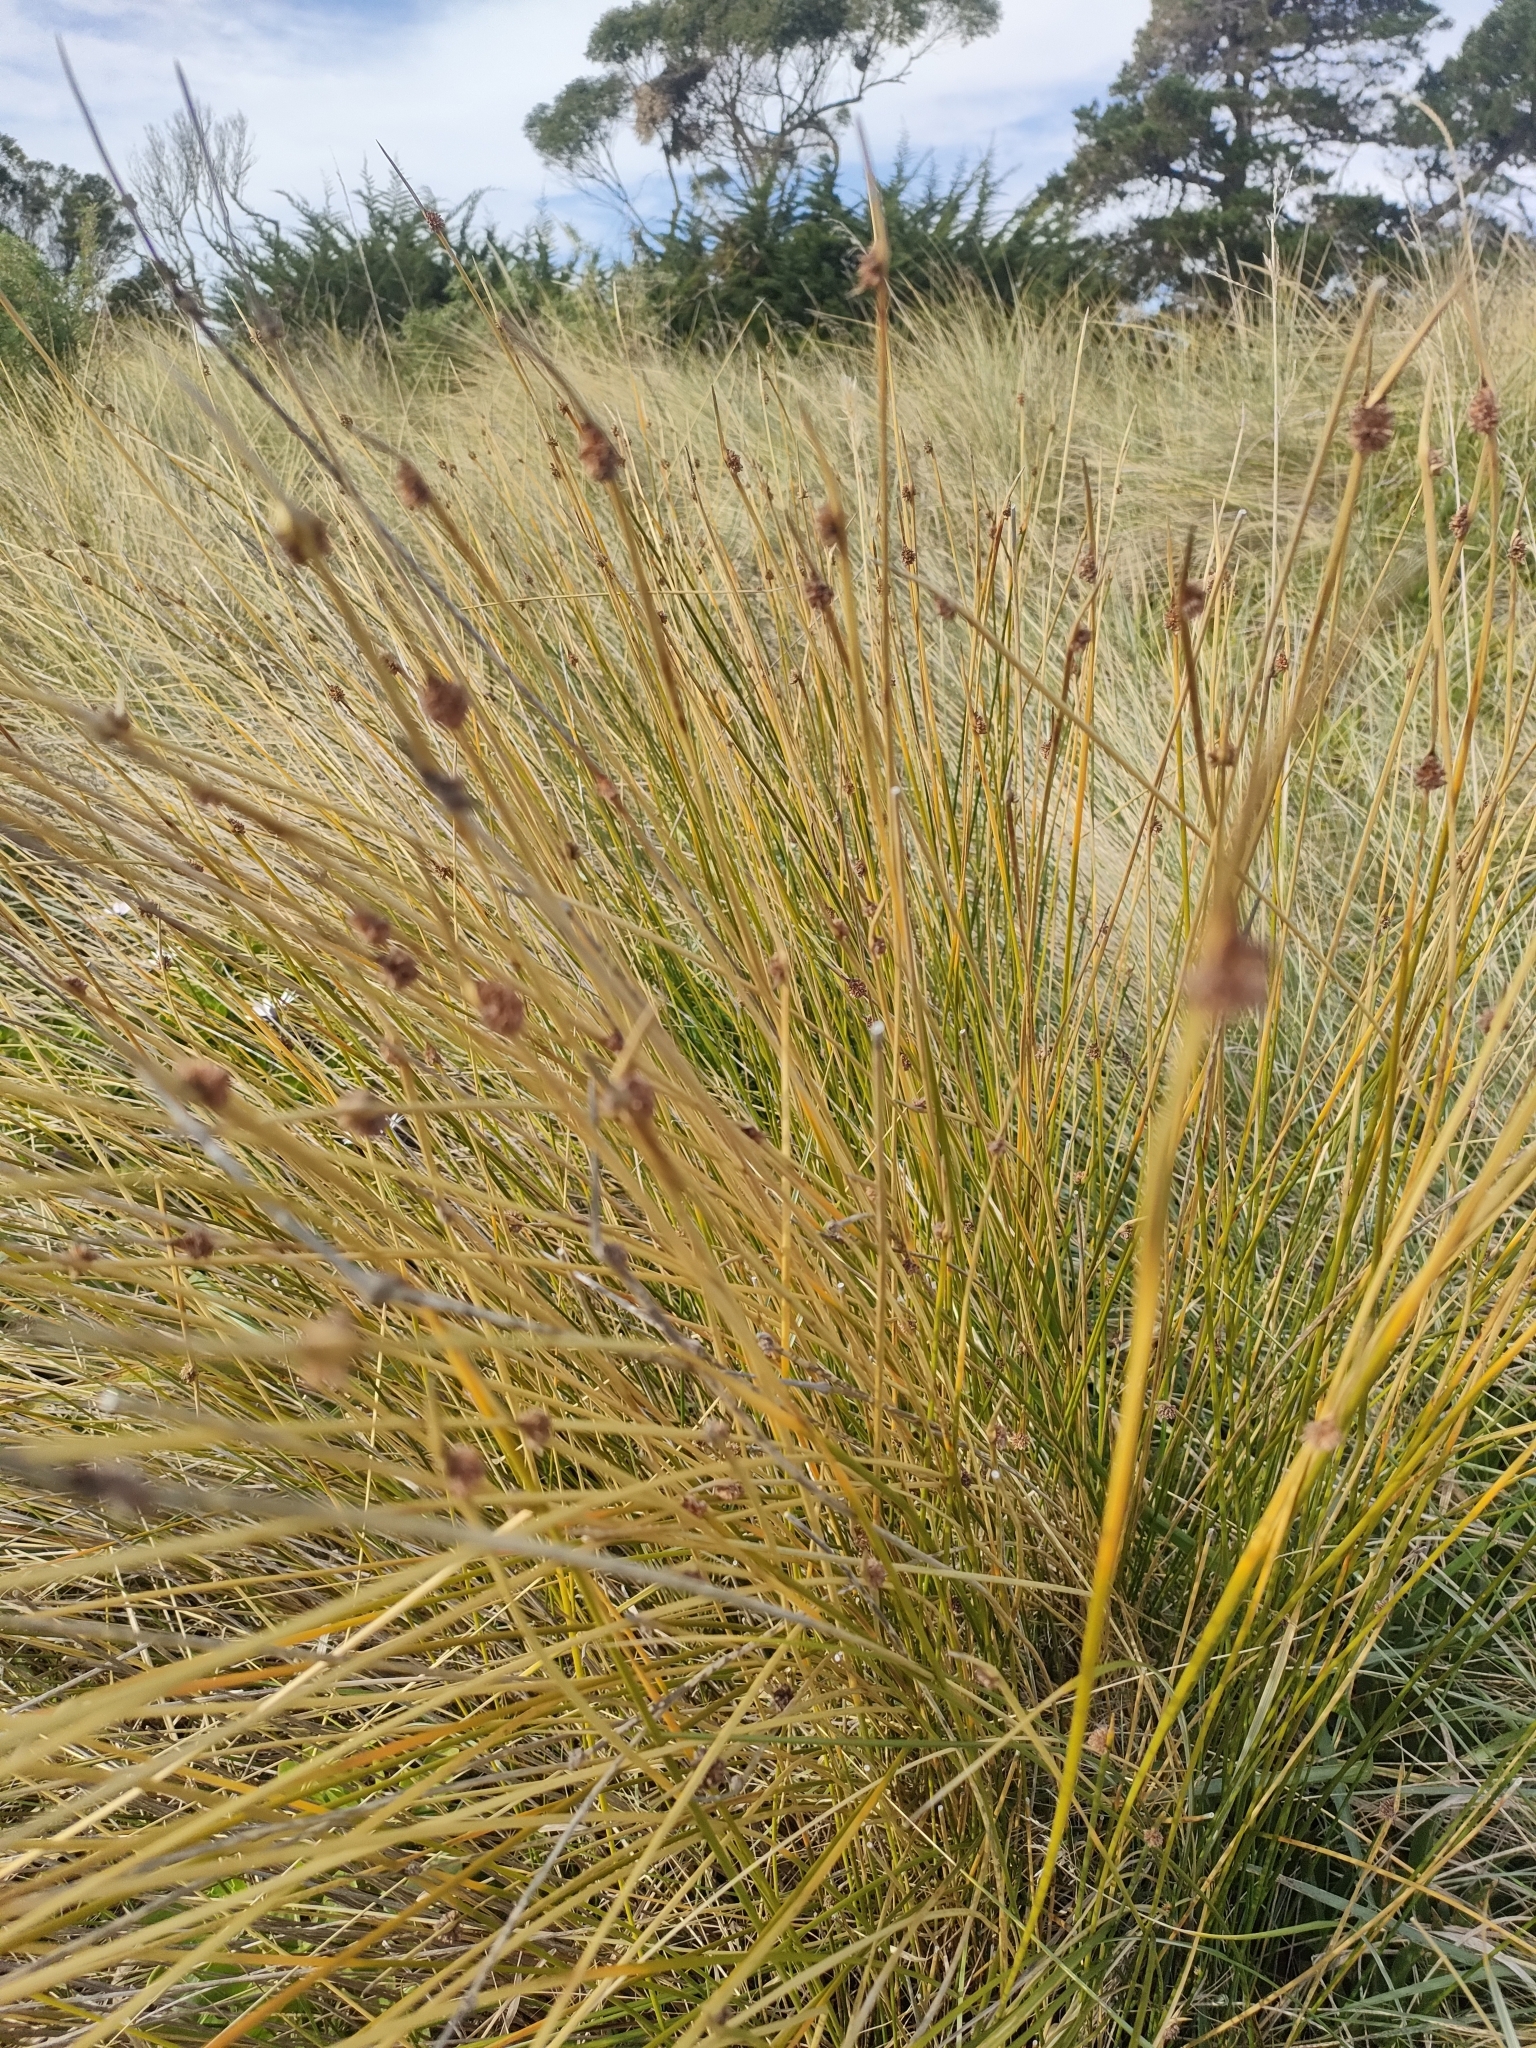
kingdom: Plantae
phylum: Tracheophyta
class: Liliopsida
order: Poales
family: Cyperaceae
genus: Ficinia
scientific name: Ficinia nodosa
